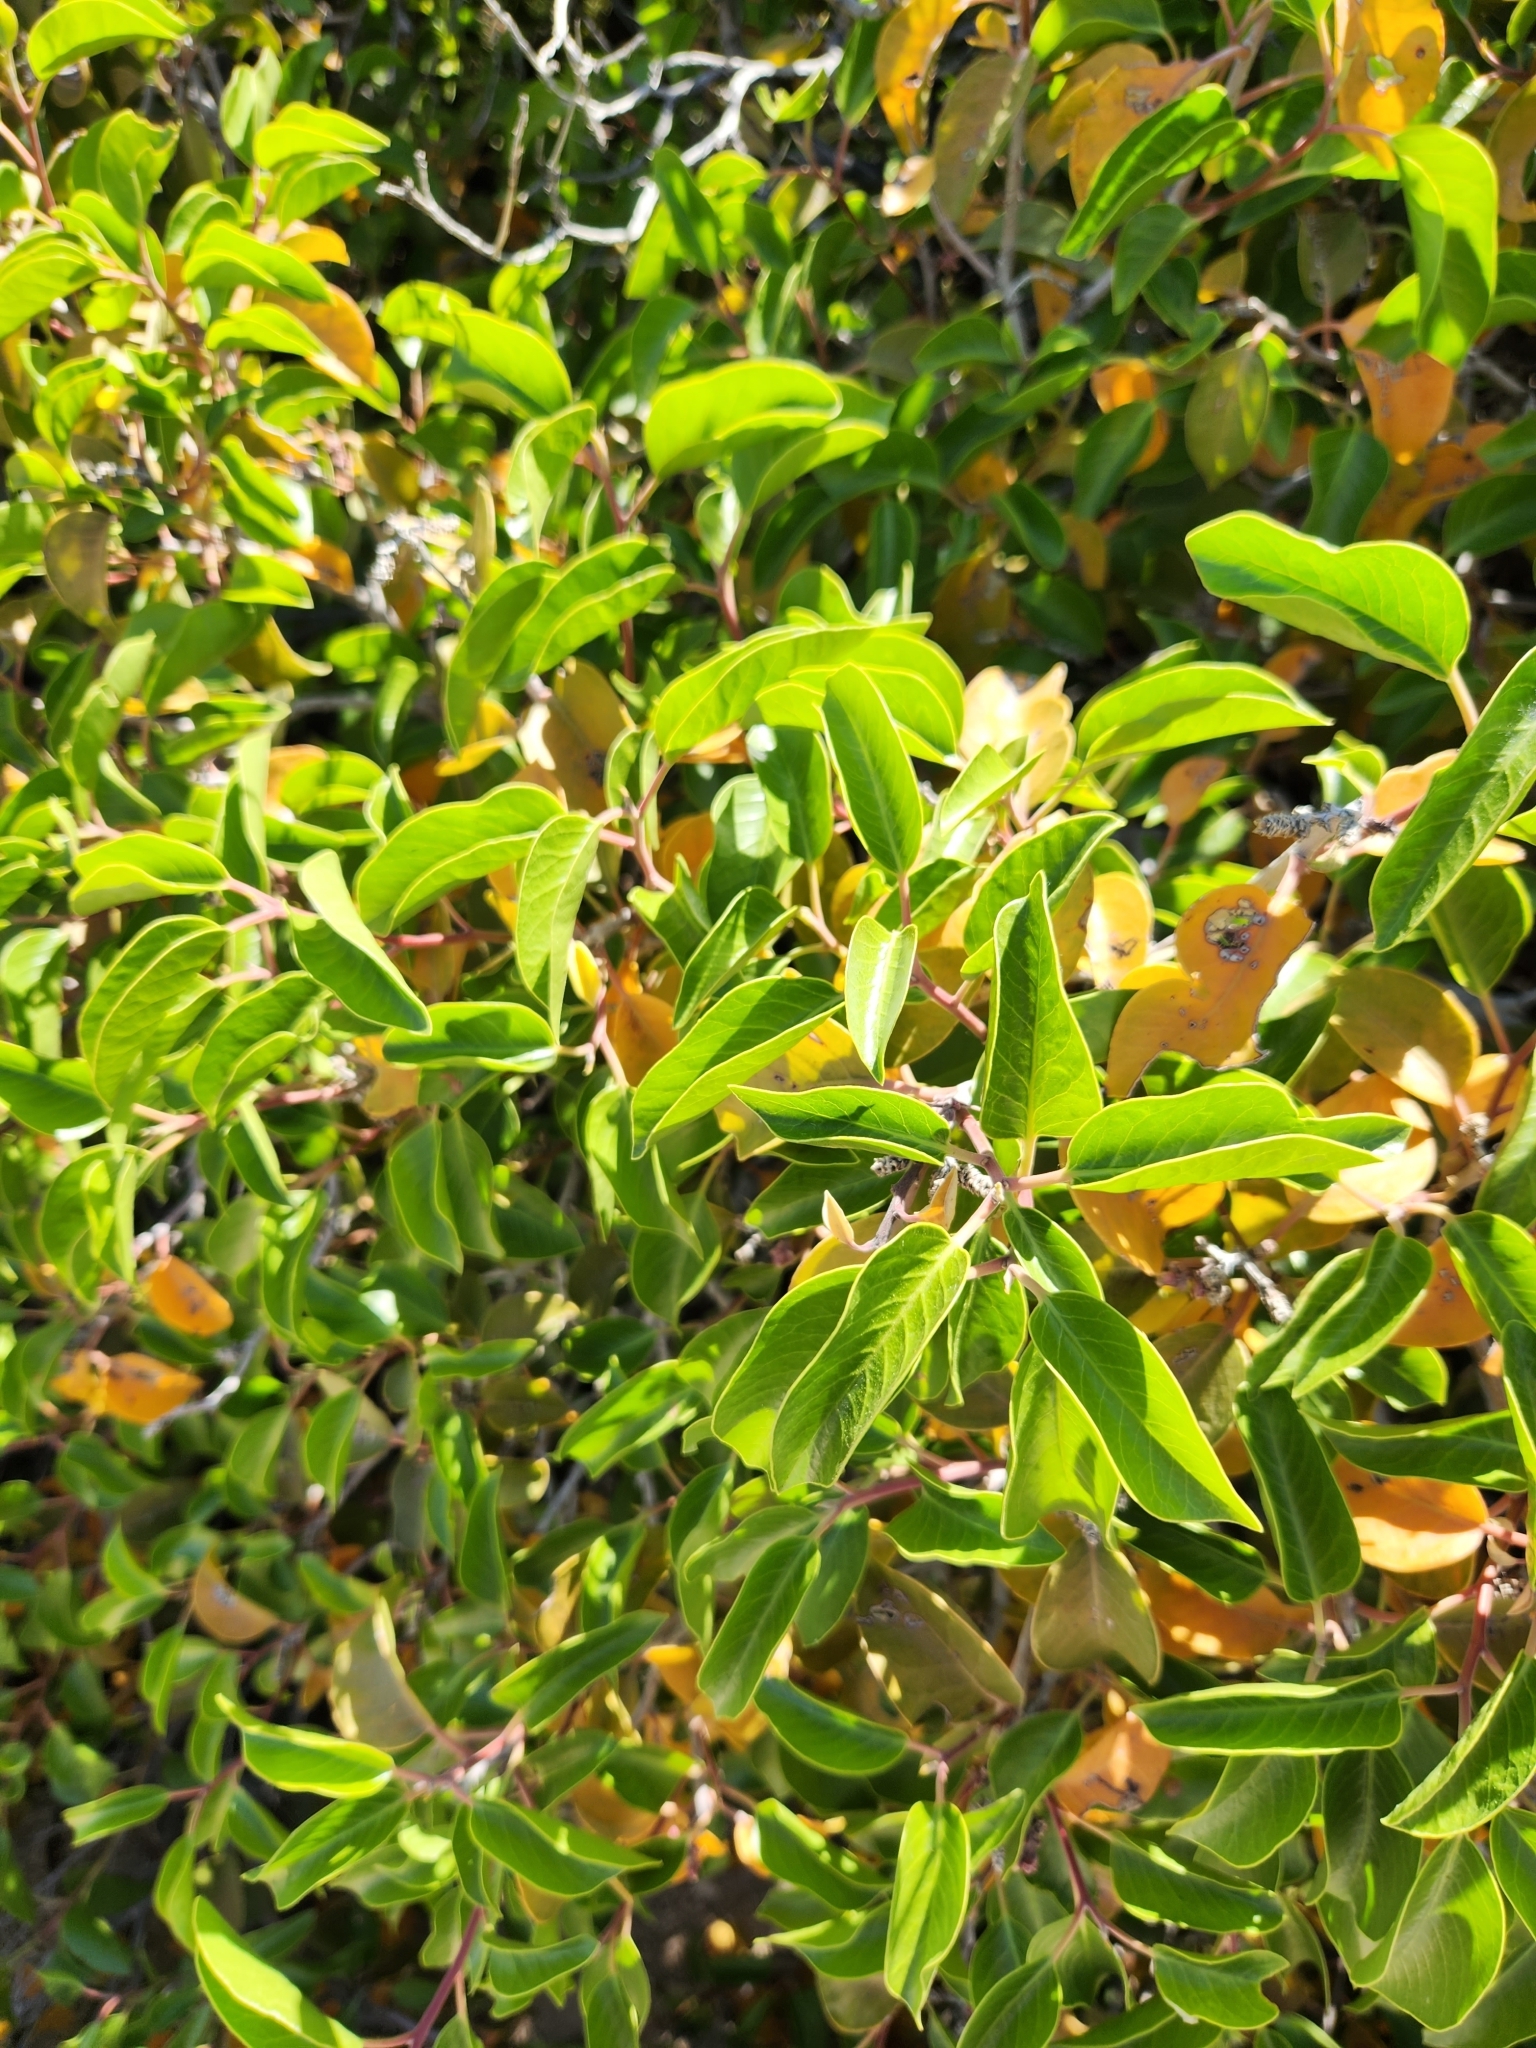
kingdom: Plantae
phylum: Tracheophyta
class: Magnoliopsida
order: Sapindales
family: Anacardiaceae
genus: Rhus
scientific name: Rhus ovata
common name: Sugar sumac
